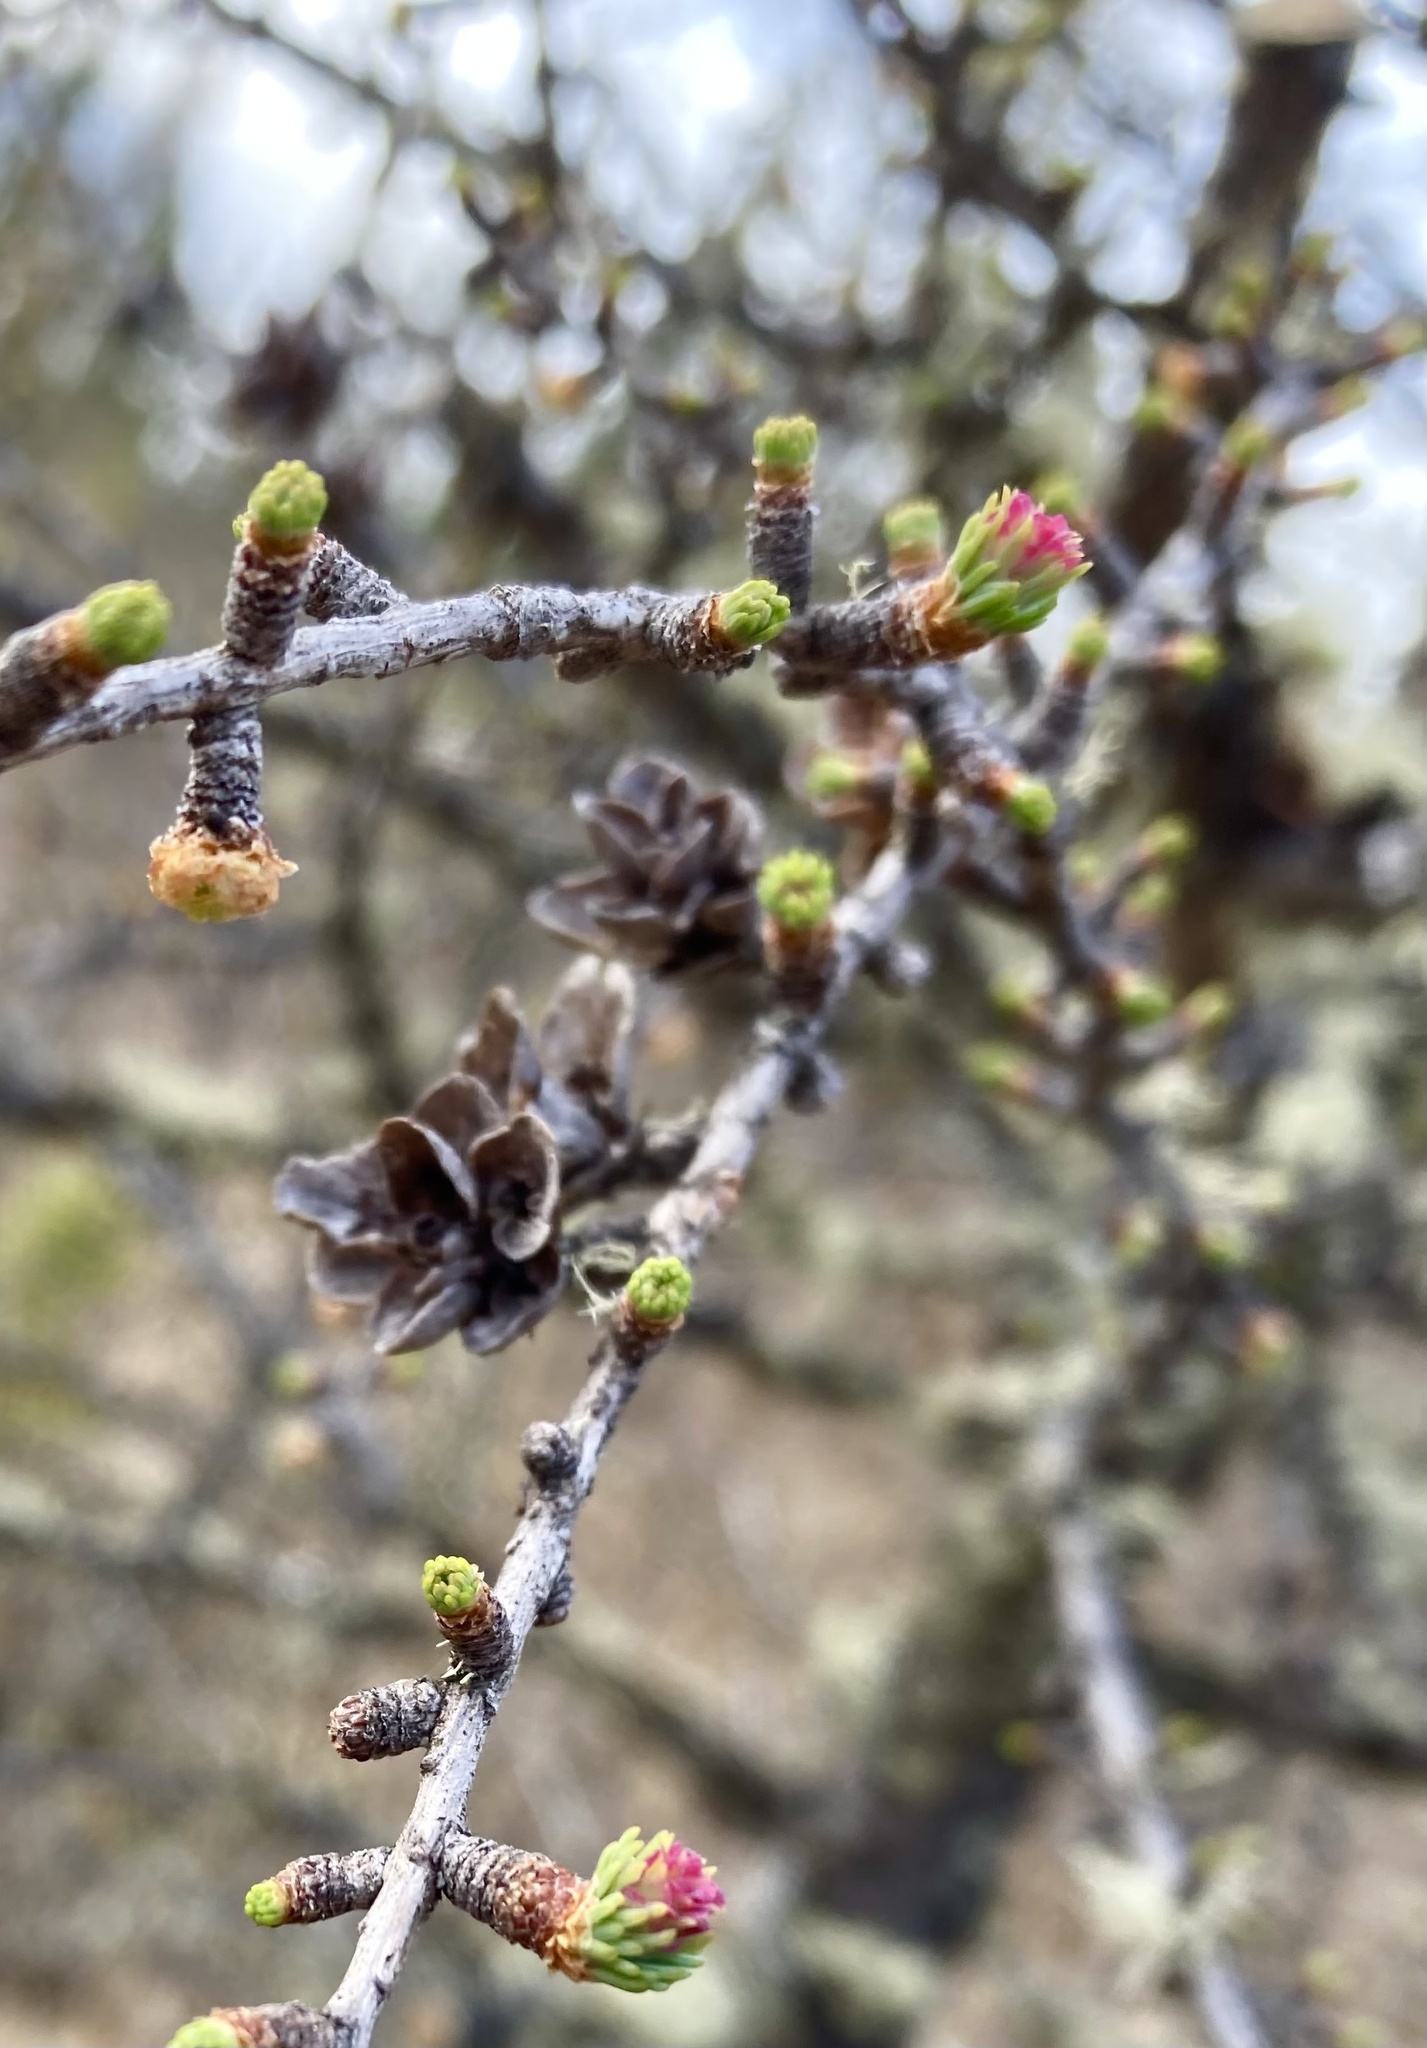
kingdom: Plantae
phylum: Tracheophyta
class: Pinopsida
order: Pinales
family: Pinaceae
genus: Larix
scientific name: Larix laricina
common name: American larch
